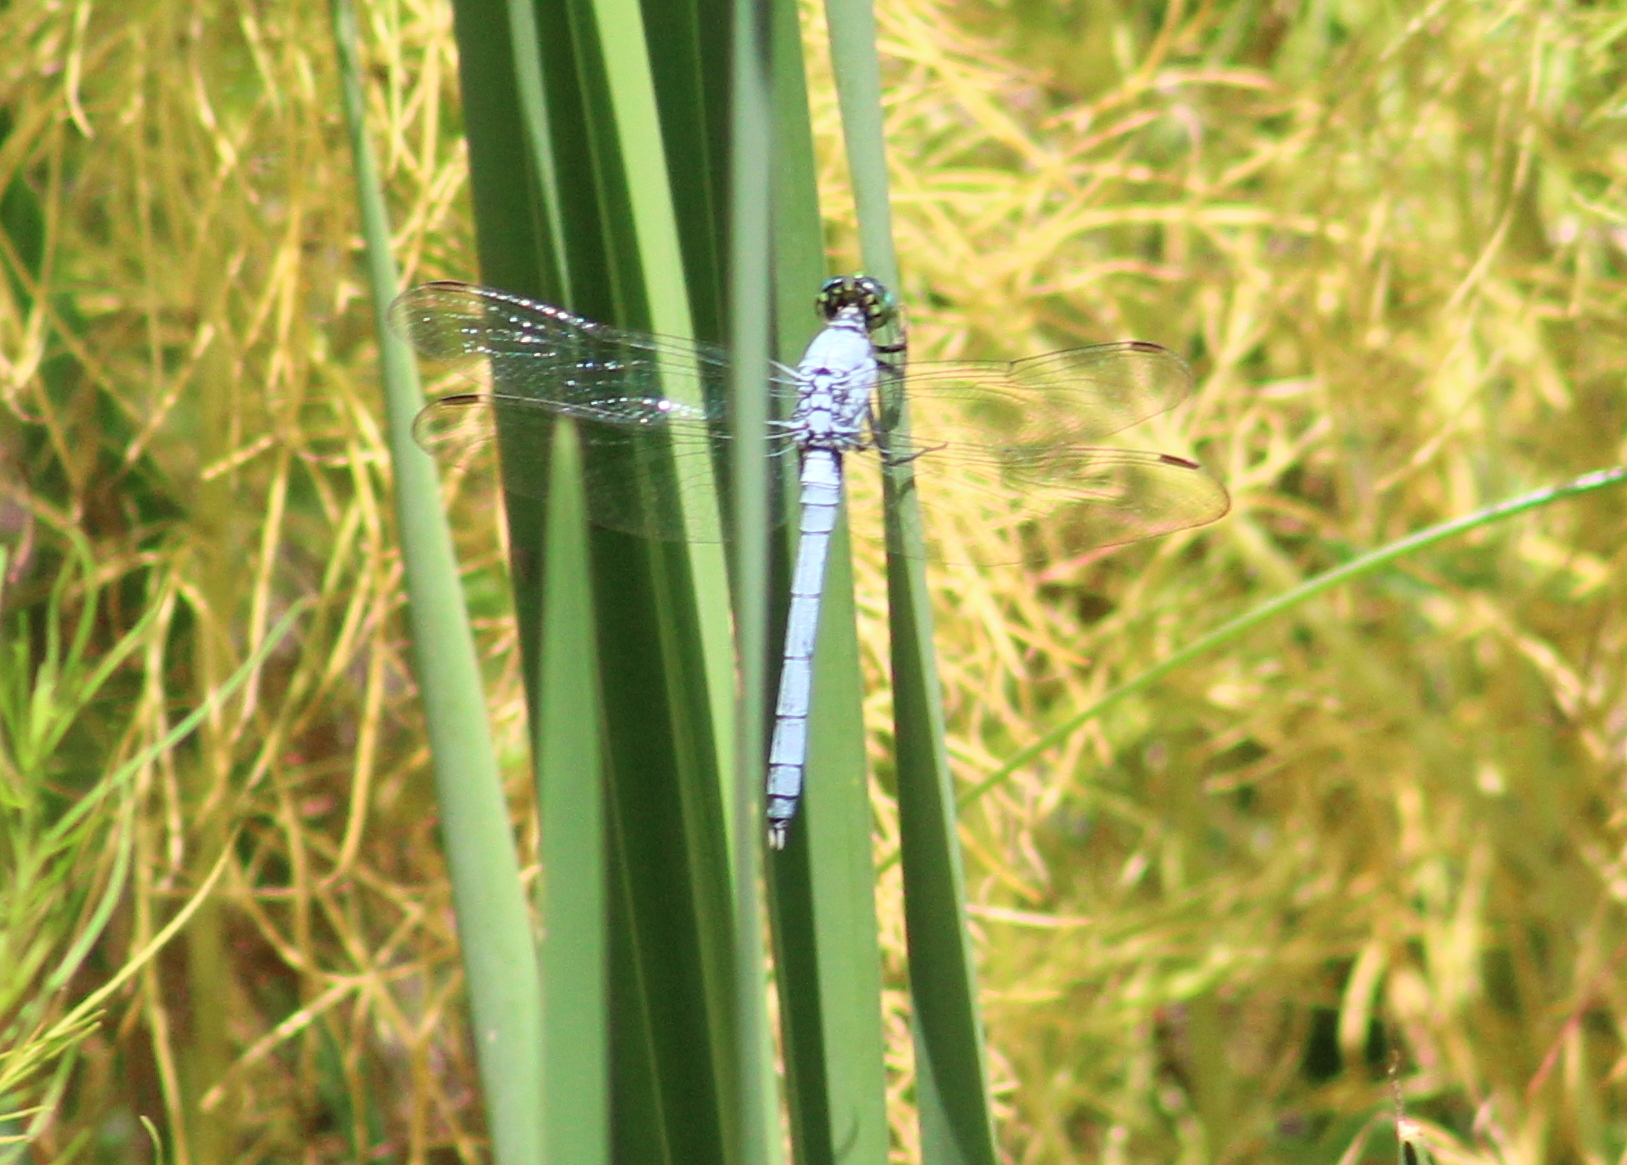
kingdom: Animalia
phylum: Arthropoda
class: Insecta
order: Odonata
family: Libellulidae
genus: Erythemis
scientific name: Erythemis simplicicollis
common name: Eastern pondhawk
